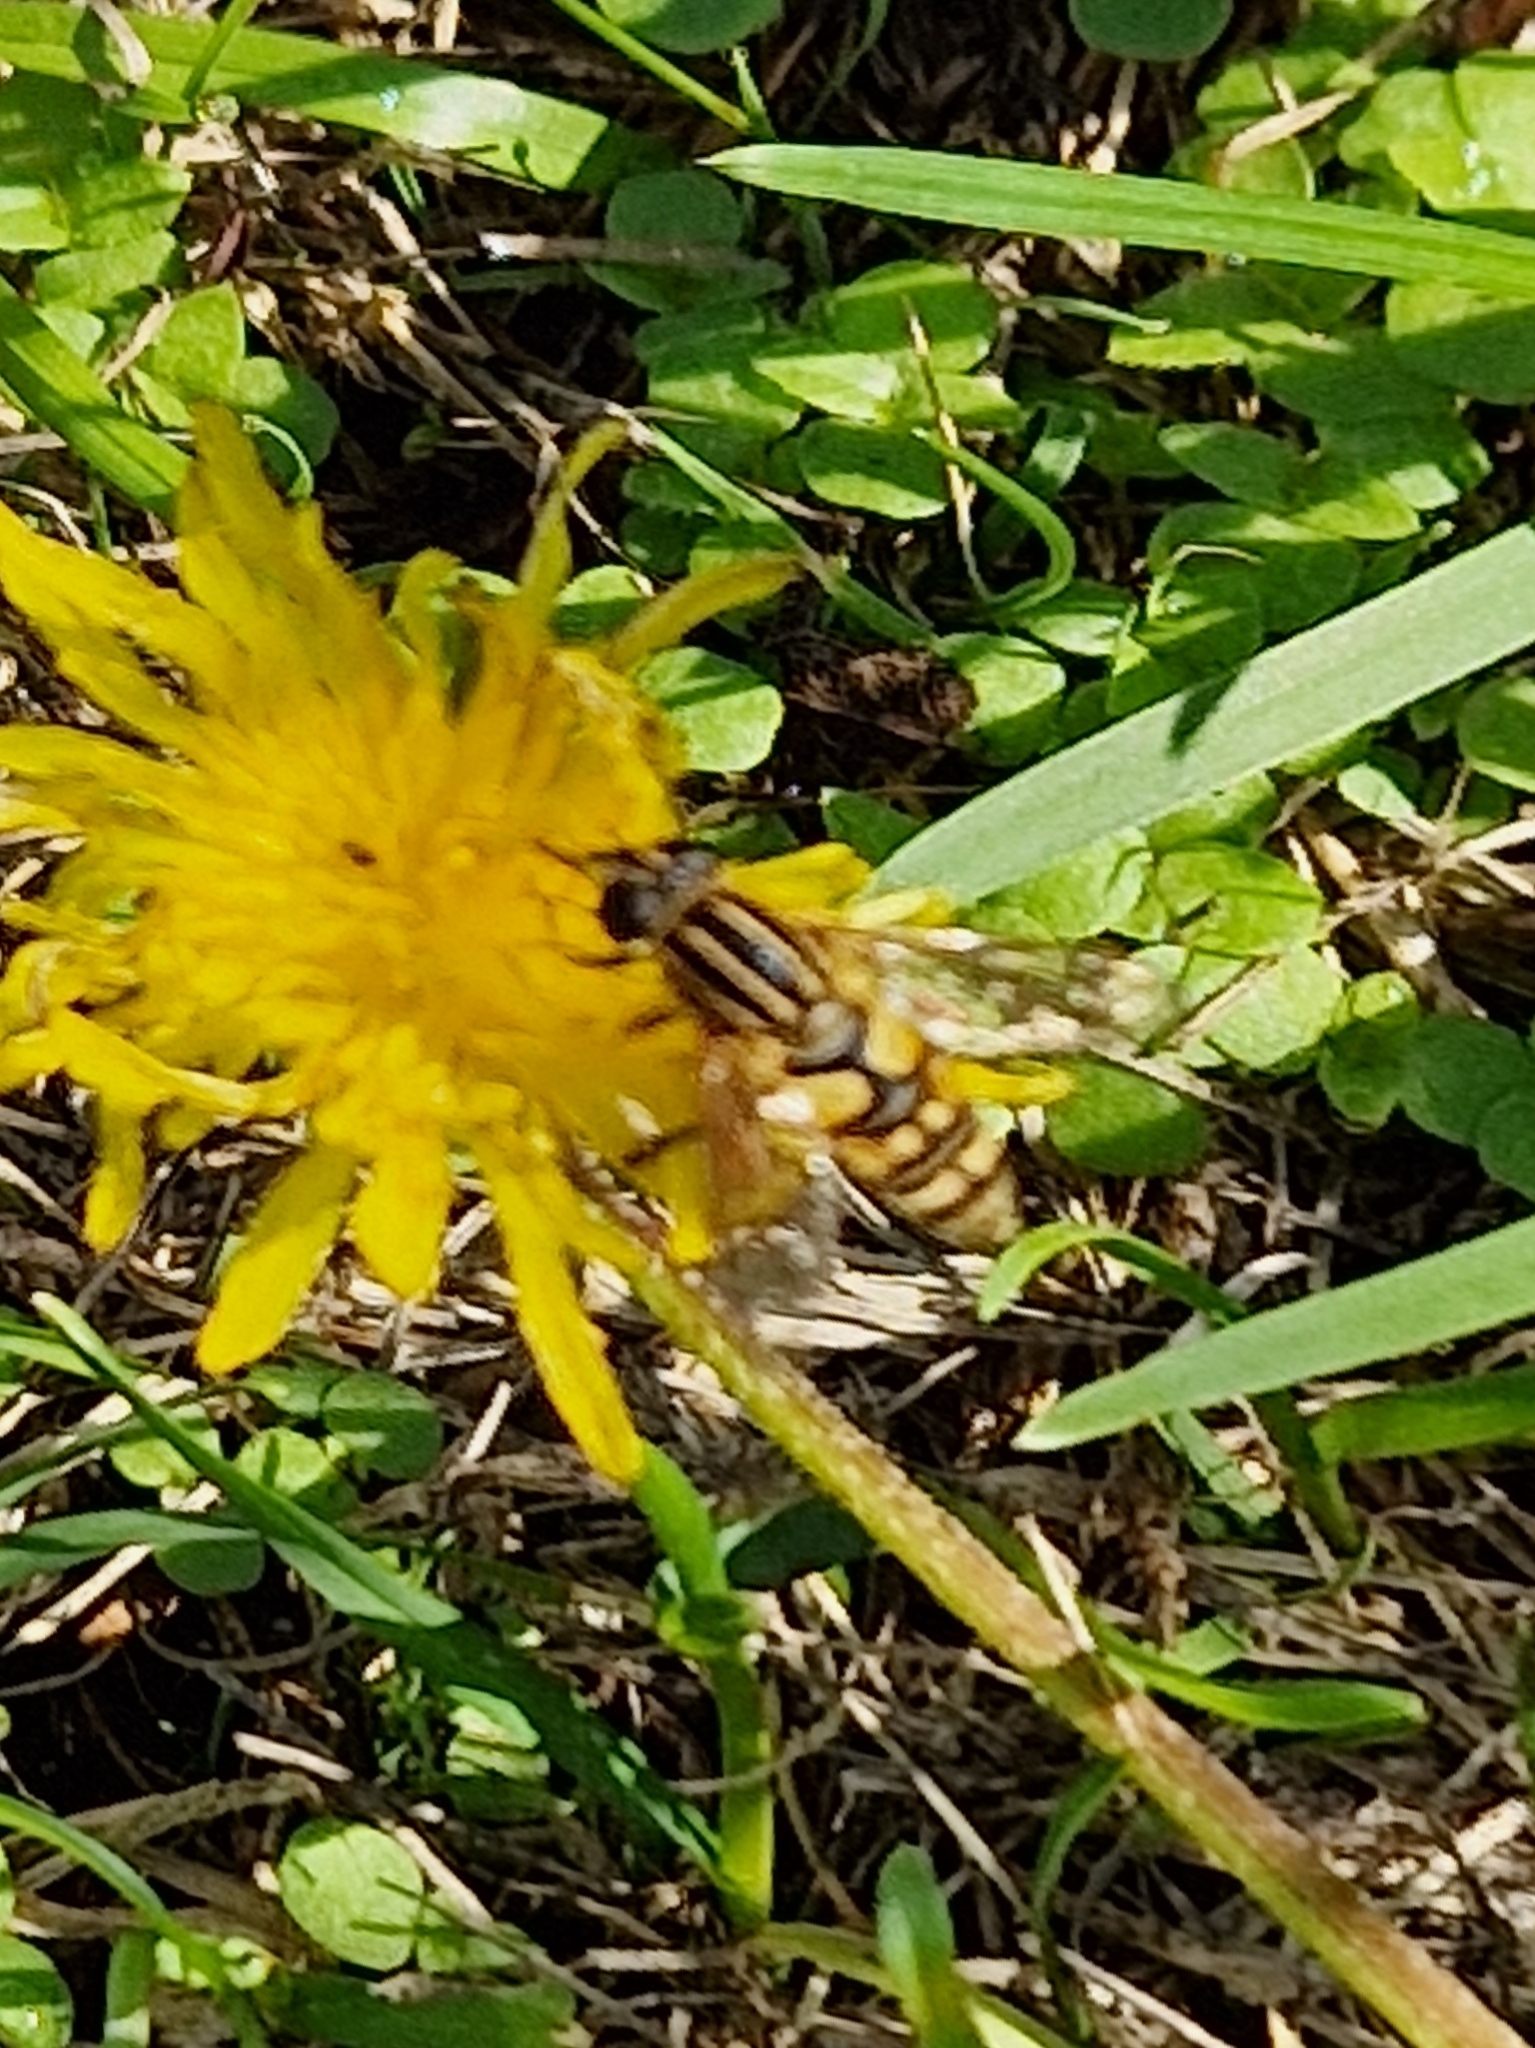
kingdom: Animalia
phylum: Arthropoda
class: Insecta
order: Diptera
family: Syrphidae
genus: Helophilus
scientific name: Helophilus pendulus
